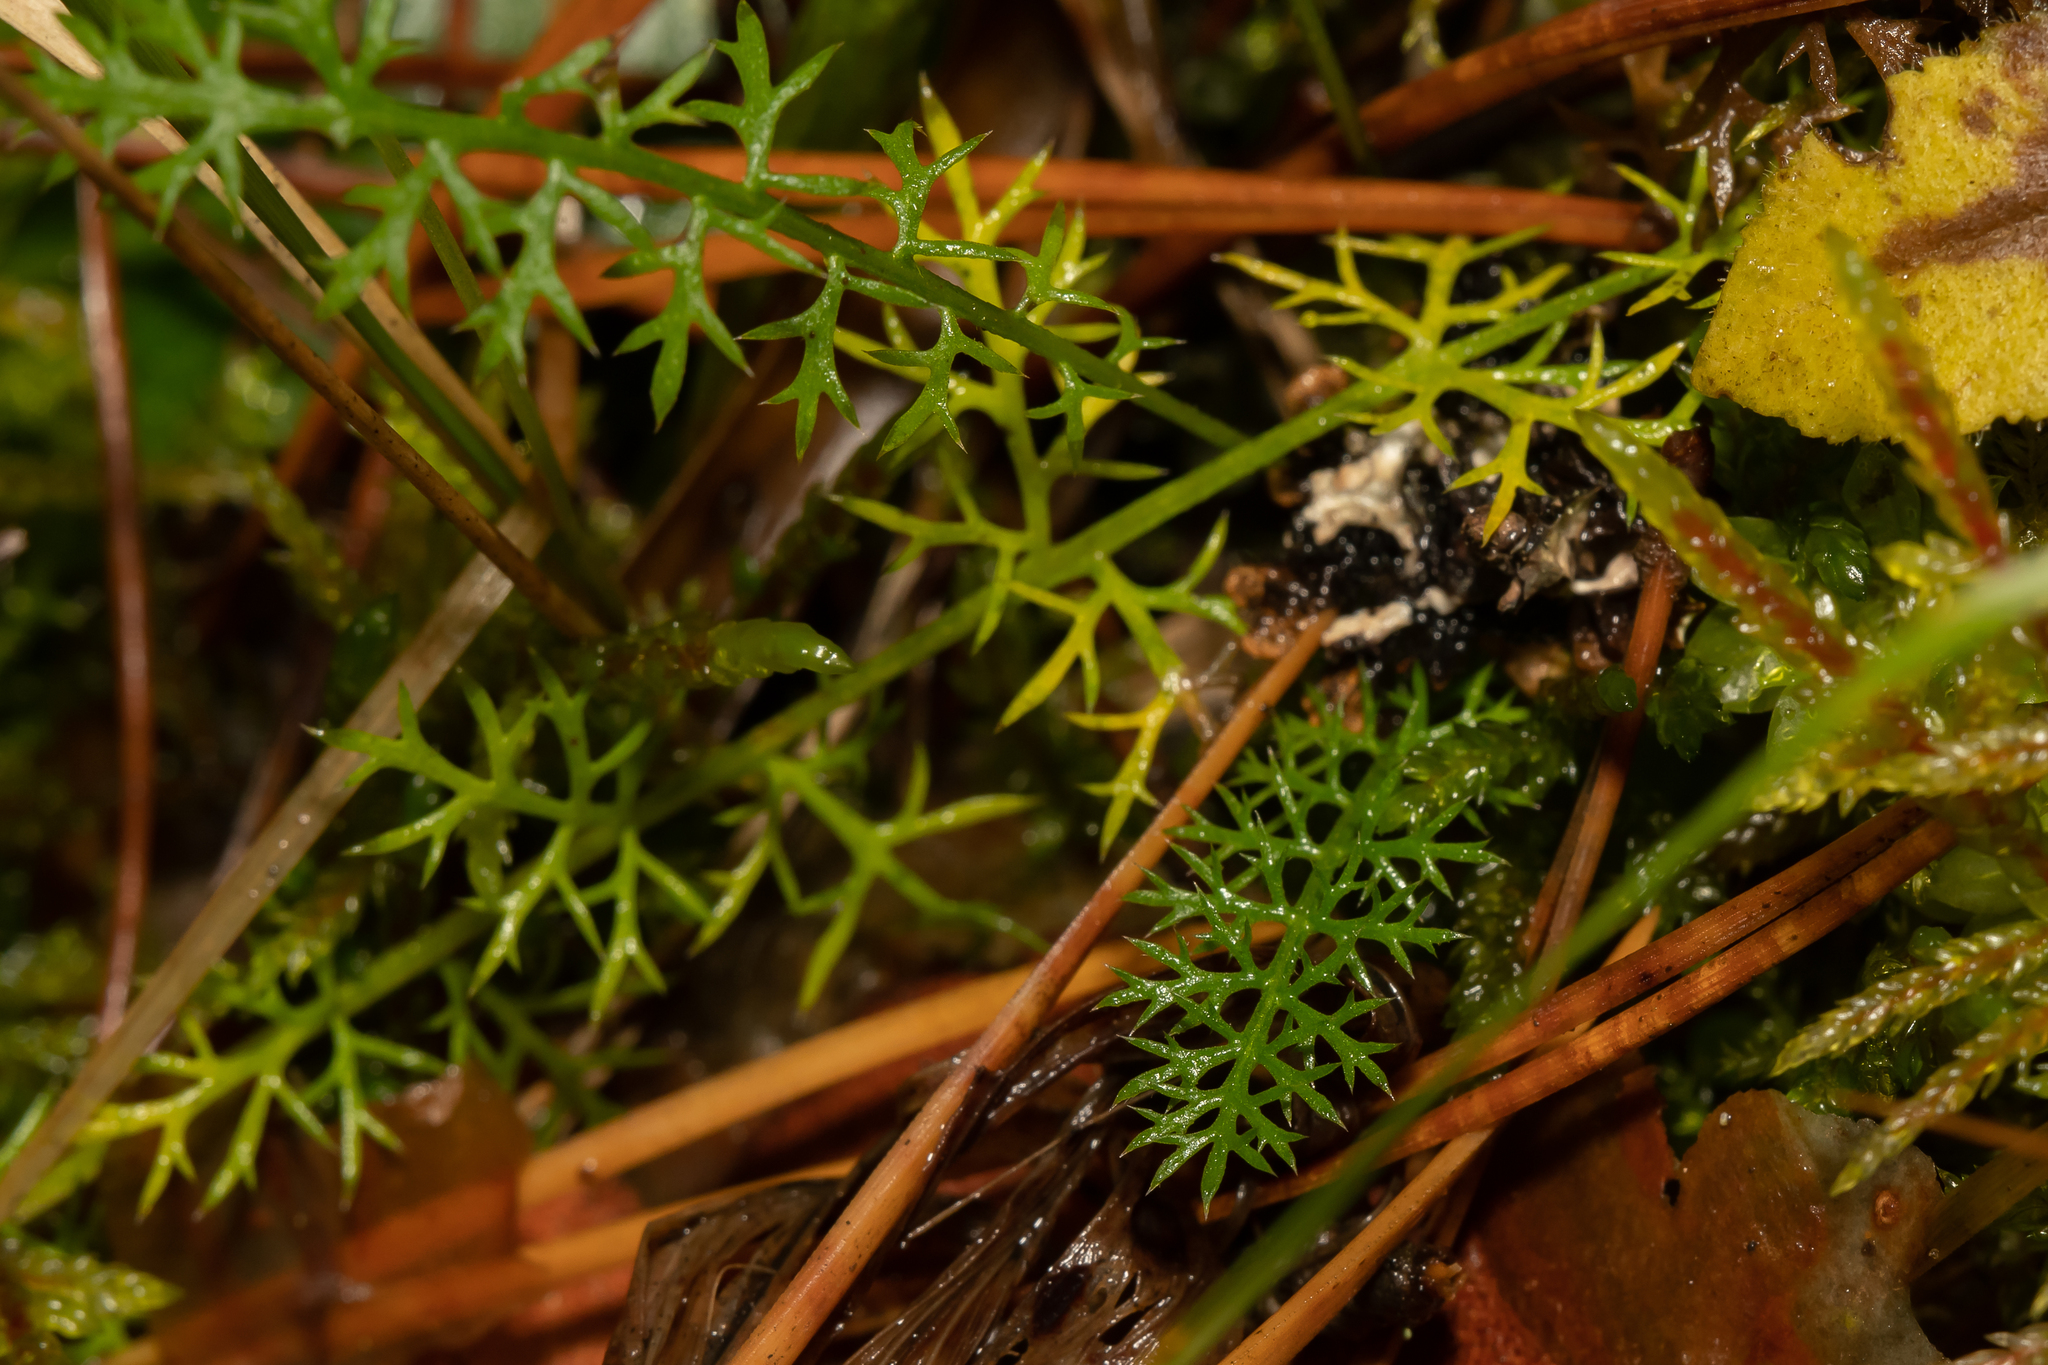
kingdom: Plantae
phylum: Tracheophyta
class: Magnoliopsida
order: Asterales
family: Asteraceae
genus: Achillea
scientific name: Achillea millefolium
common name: Yarrow
